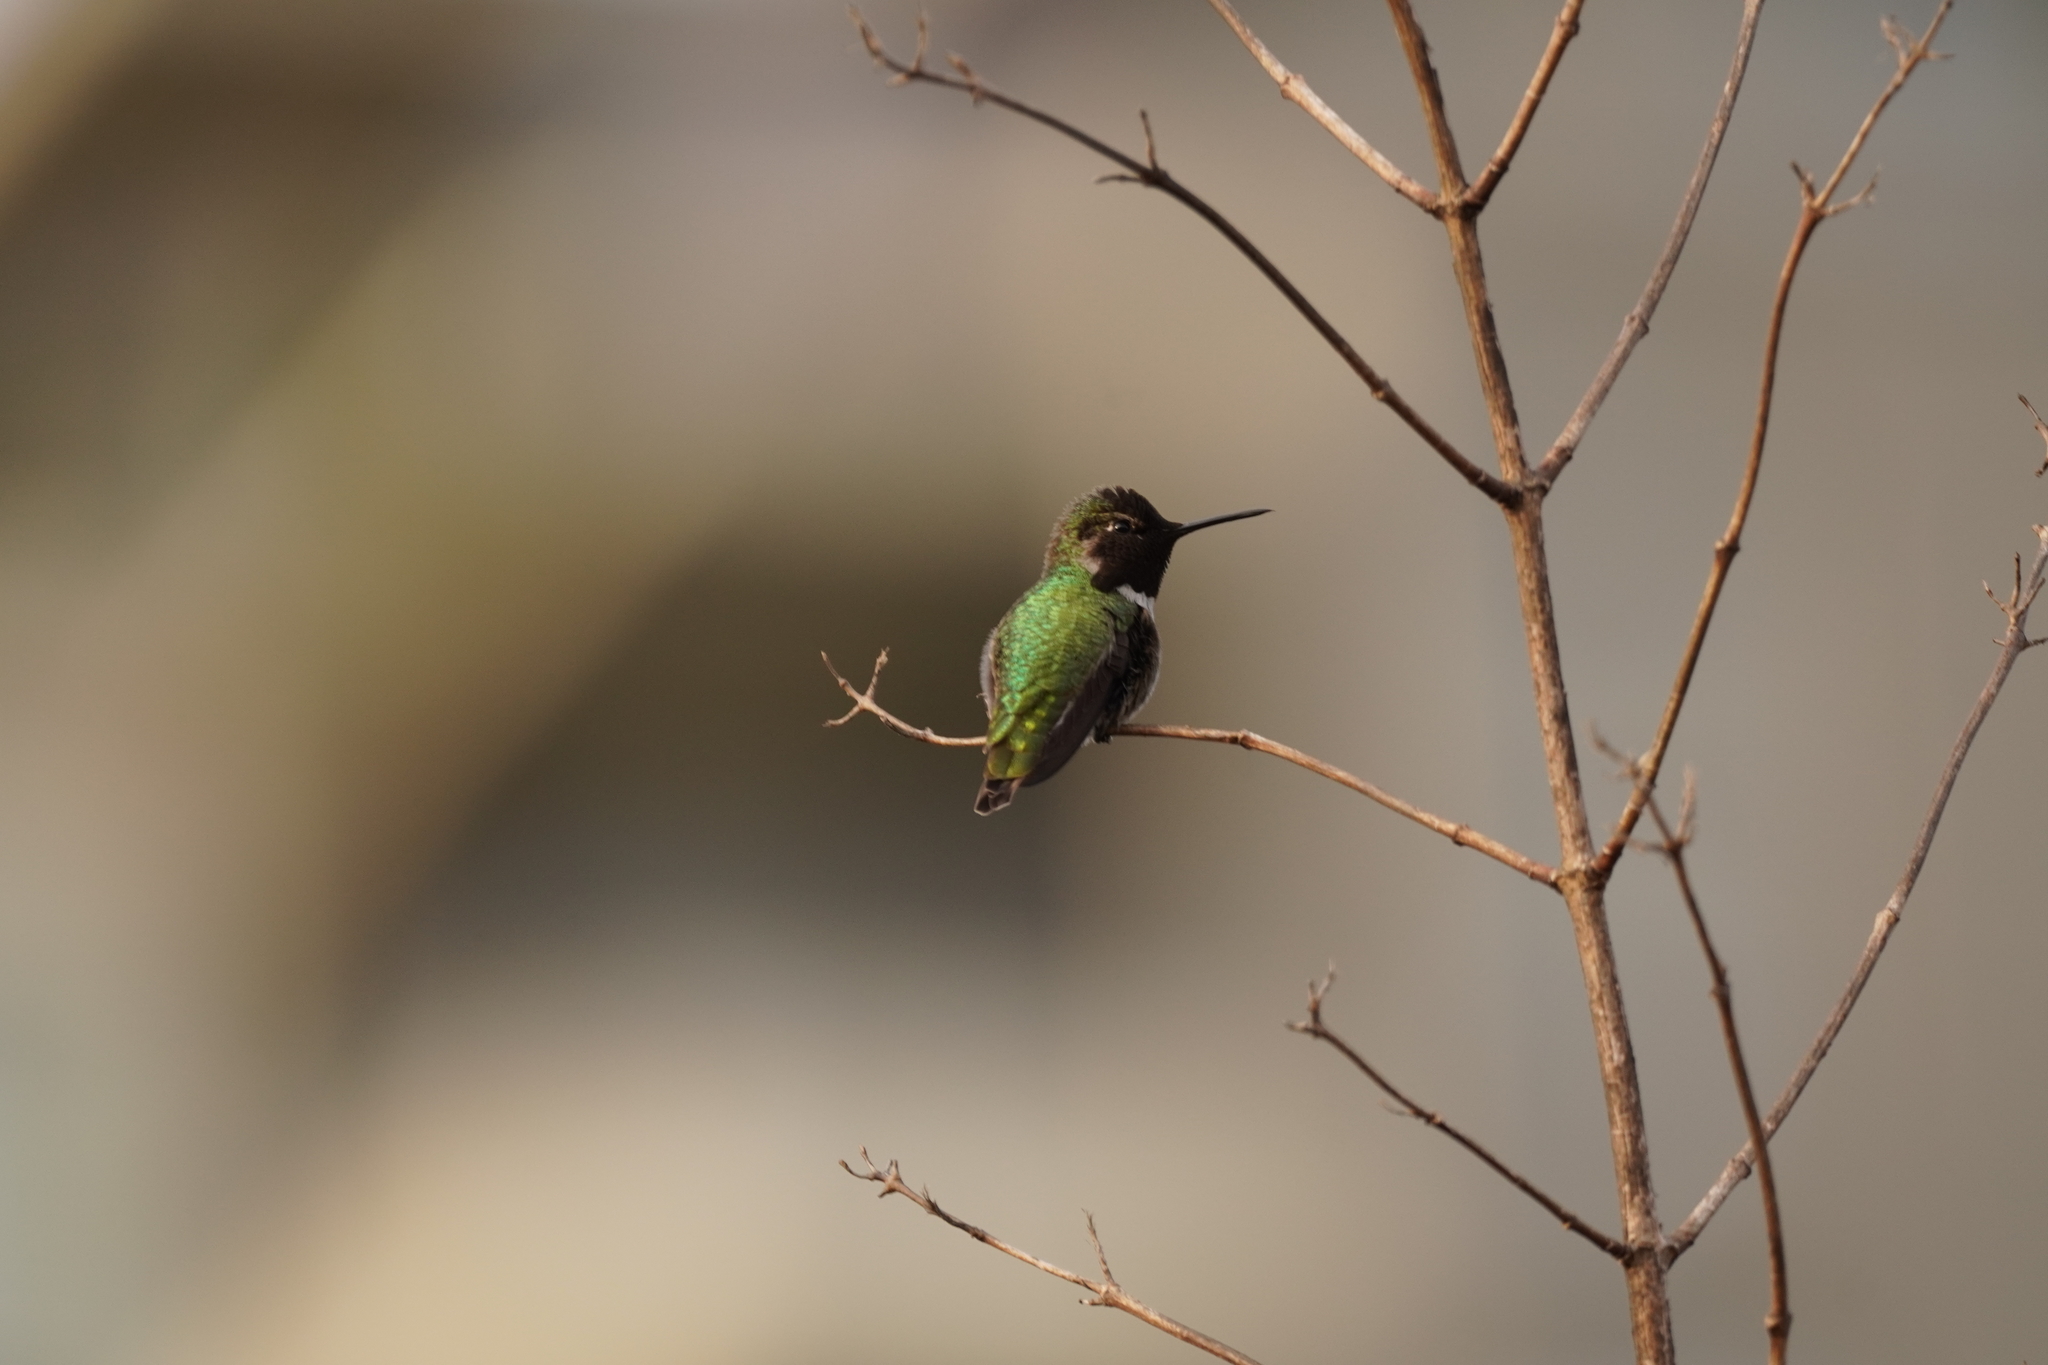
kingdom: Animalia
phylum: Chordata
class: Aves
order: Apodiformes
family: Trochilidae
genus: Calypte
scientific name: Calypte anna
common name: Anna's hummingbird
